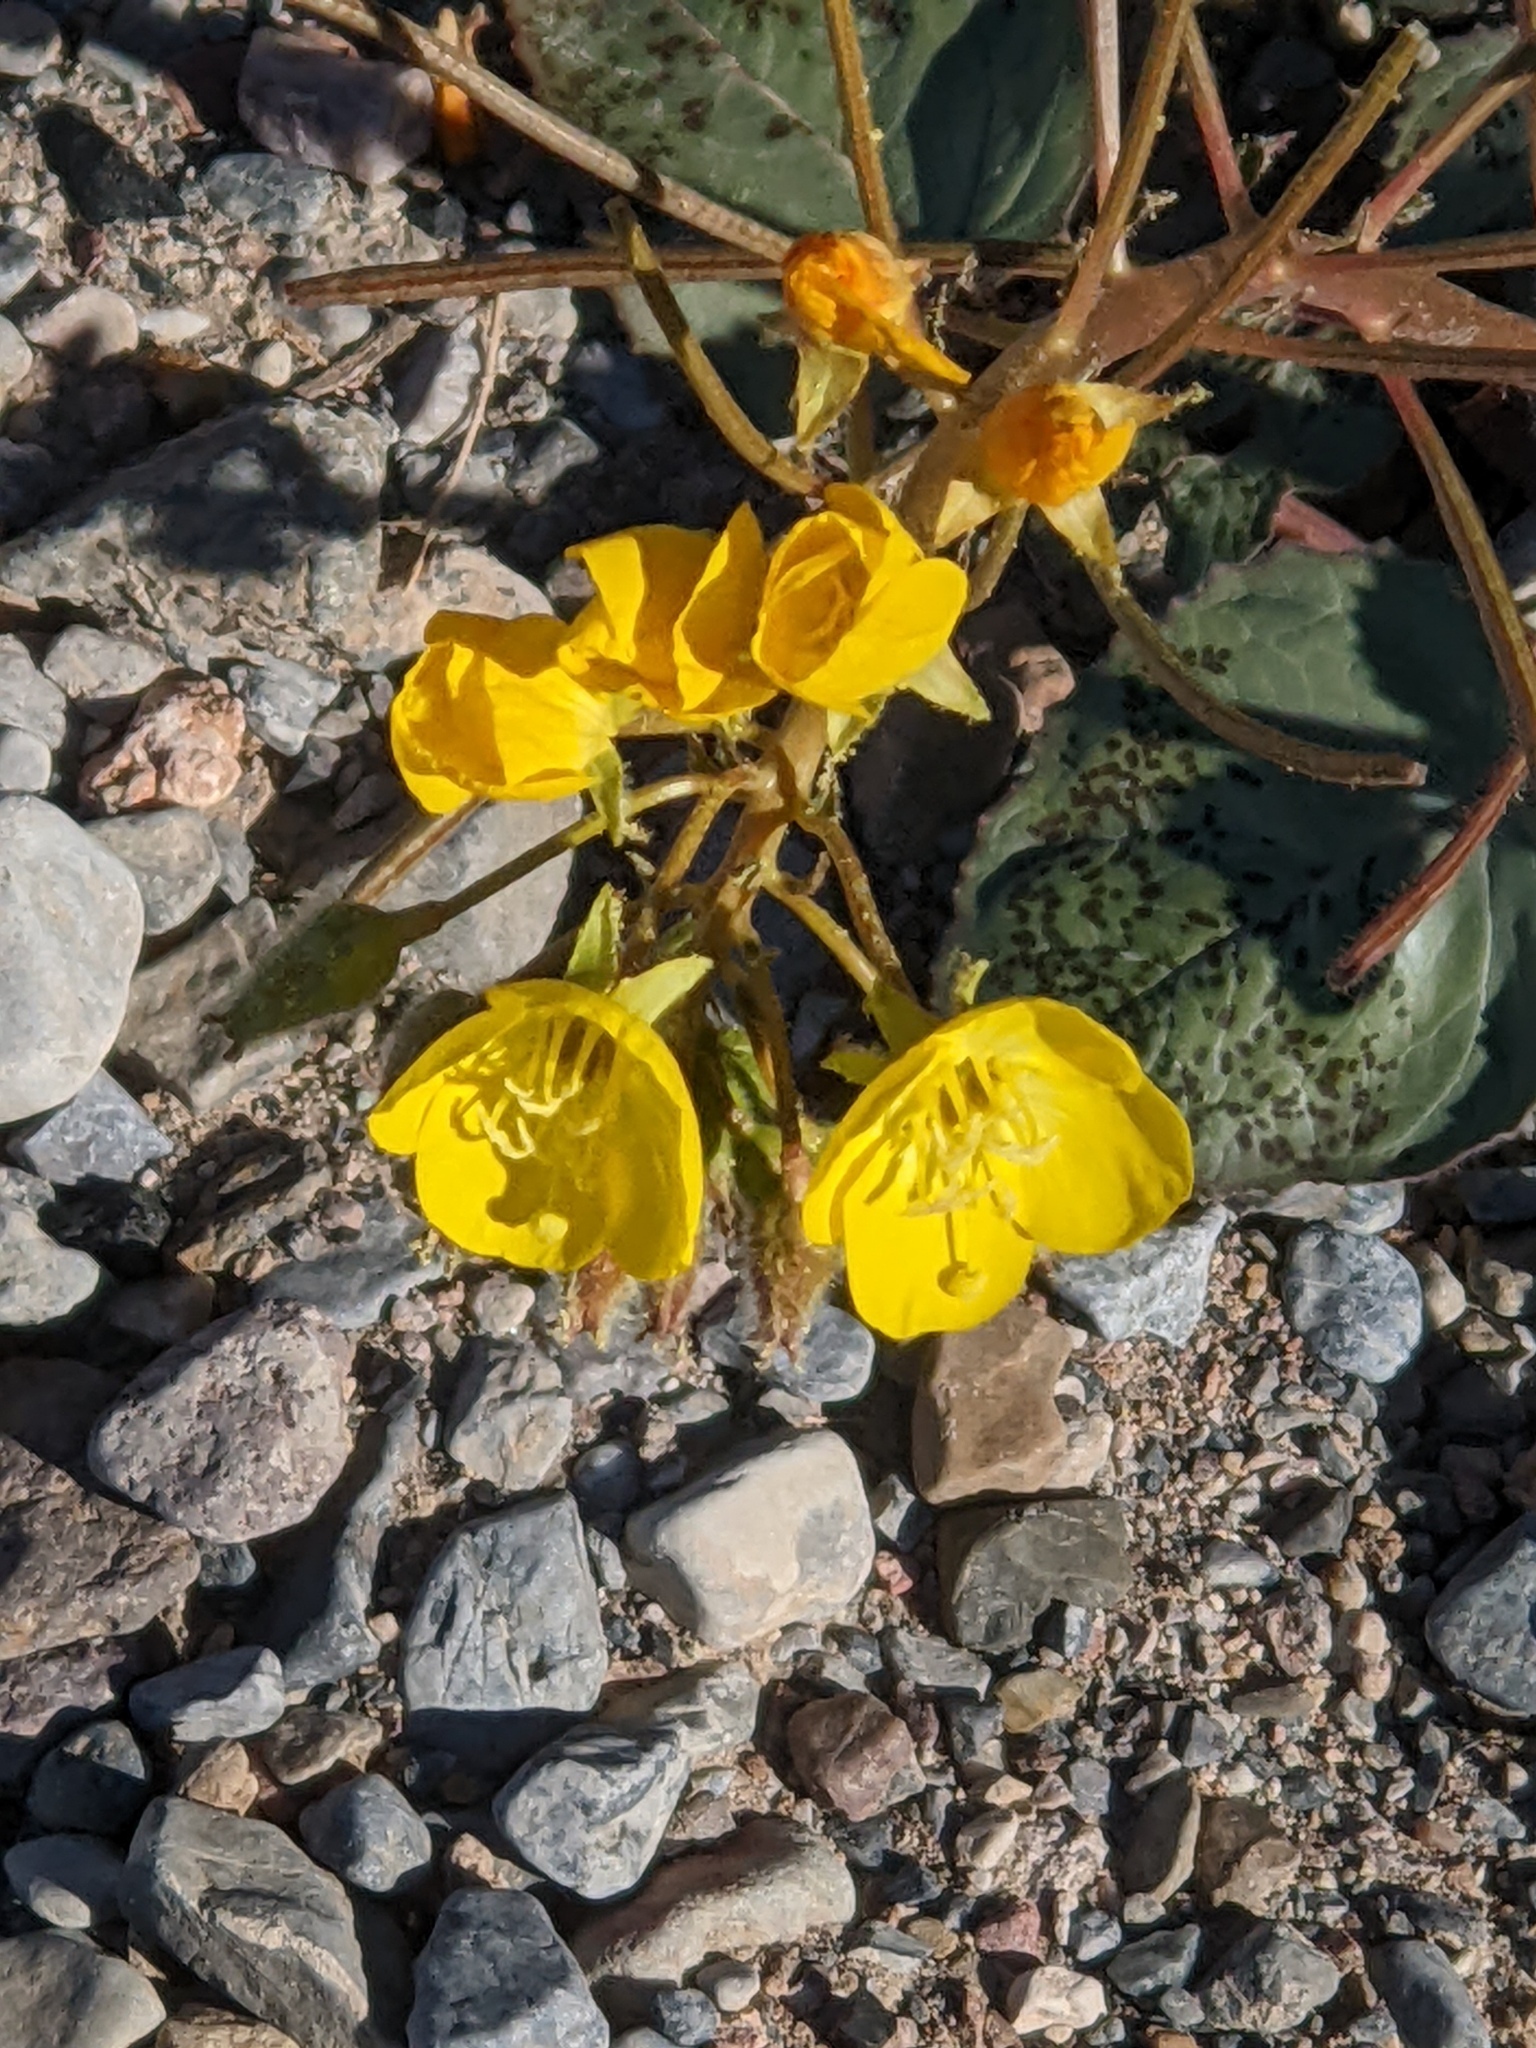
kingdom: Plantae
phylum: Tracheophyta
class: Magnoliopsida
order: Myrtales
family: Onagraceae
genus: Chylismia
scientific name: Chylismia brevipes
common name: Yellow cups
